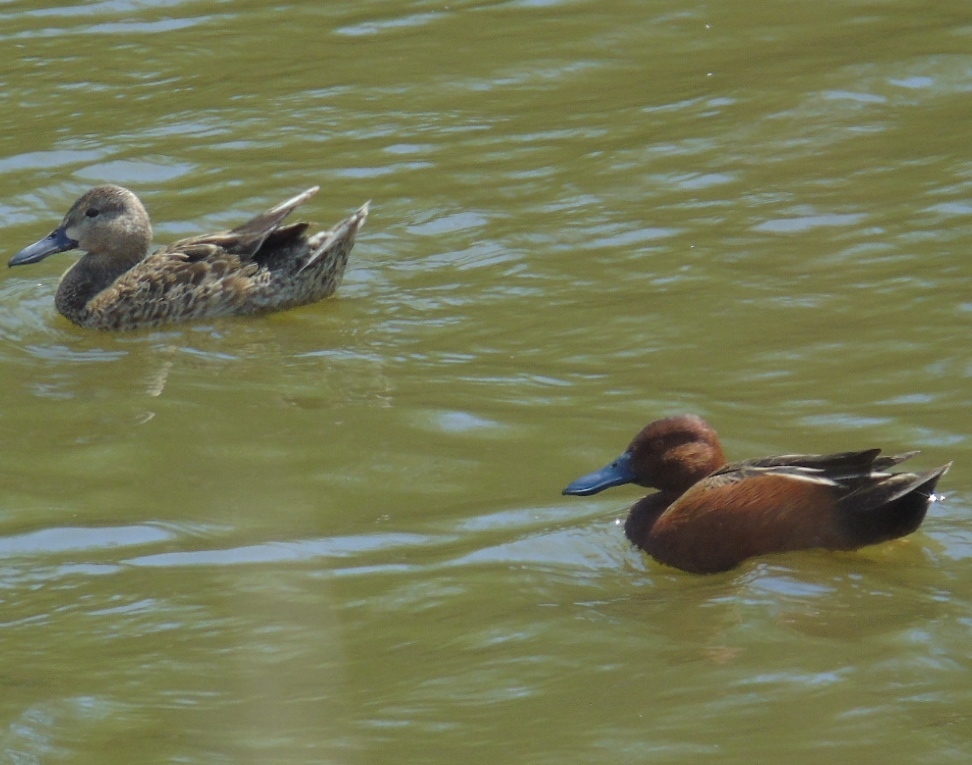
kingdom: Animalia
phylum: Chordata
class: Aves
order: Anseriformes
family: Anatidae
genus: Spatula
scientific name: Spatula cyanoptera
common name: Cinnamon teal
